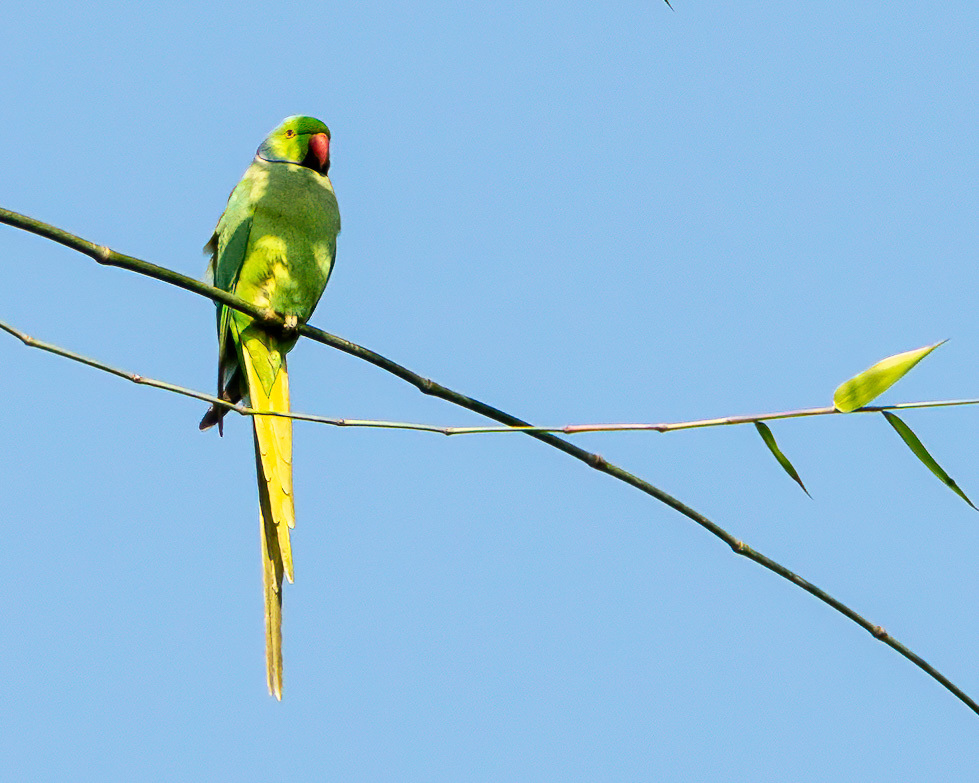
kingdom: Animalia
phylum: Chordata
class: Aves
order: Psittaciformes
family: Psittacidae
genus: Psittacula
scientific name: Psittacula krameri
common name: Rose-ringed parakeet
